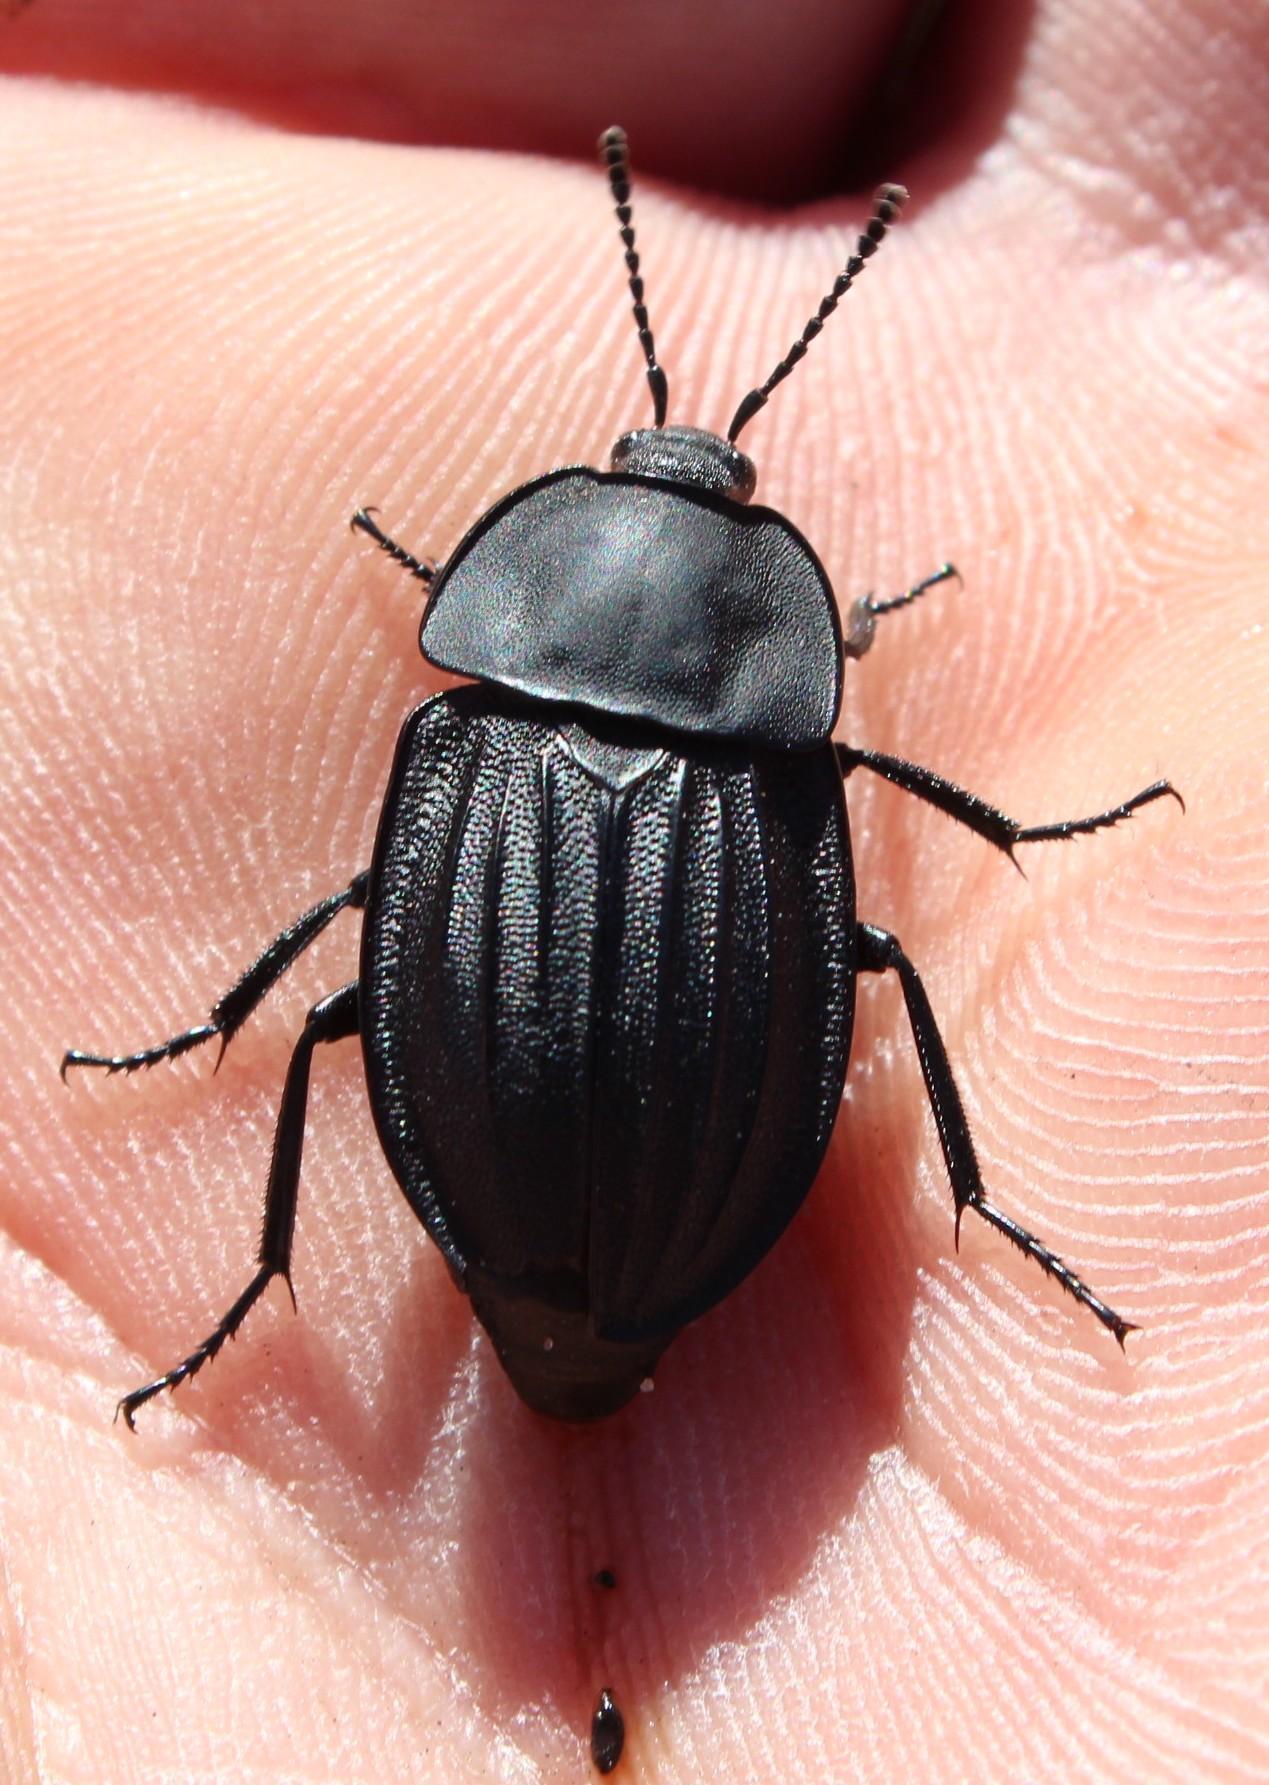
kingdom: Animalia
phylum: Arthropoda
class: Insecta
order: Coleoptera
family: Staphylinidae
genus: Silpha
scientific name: Silpha capicola
